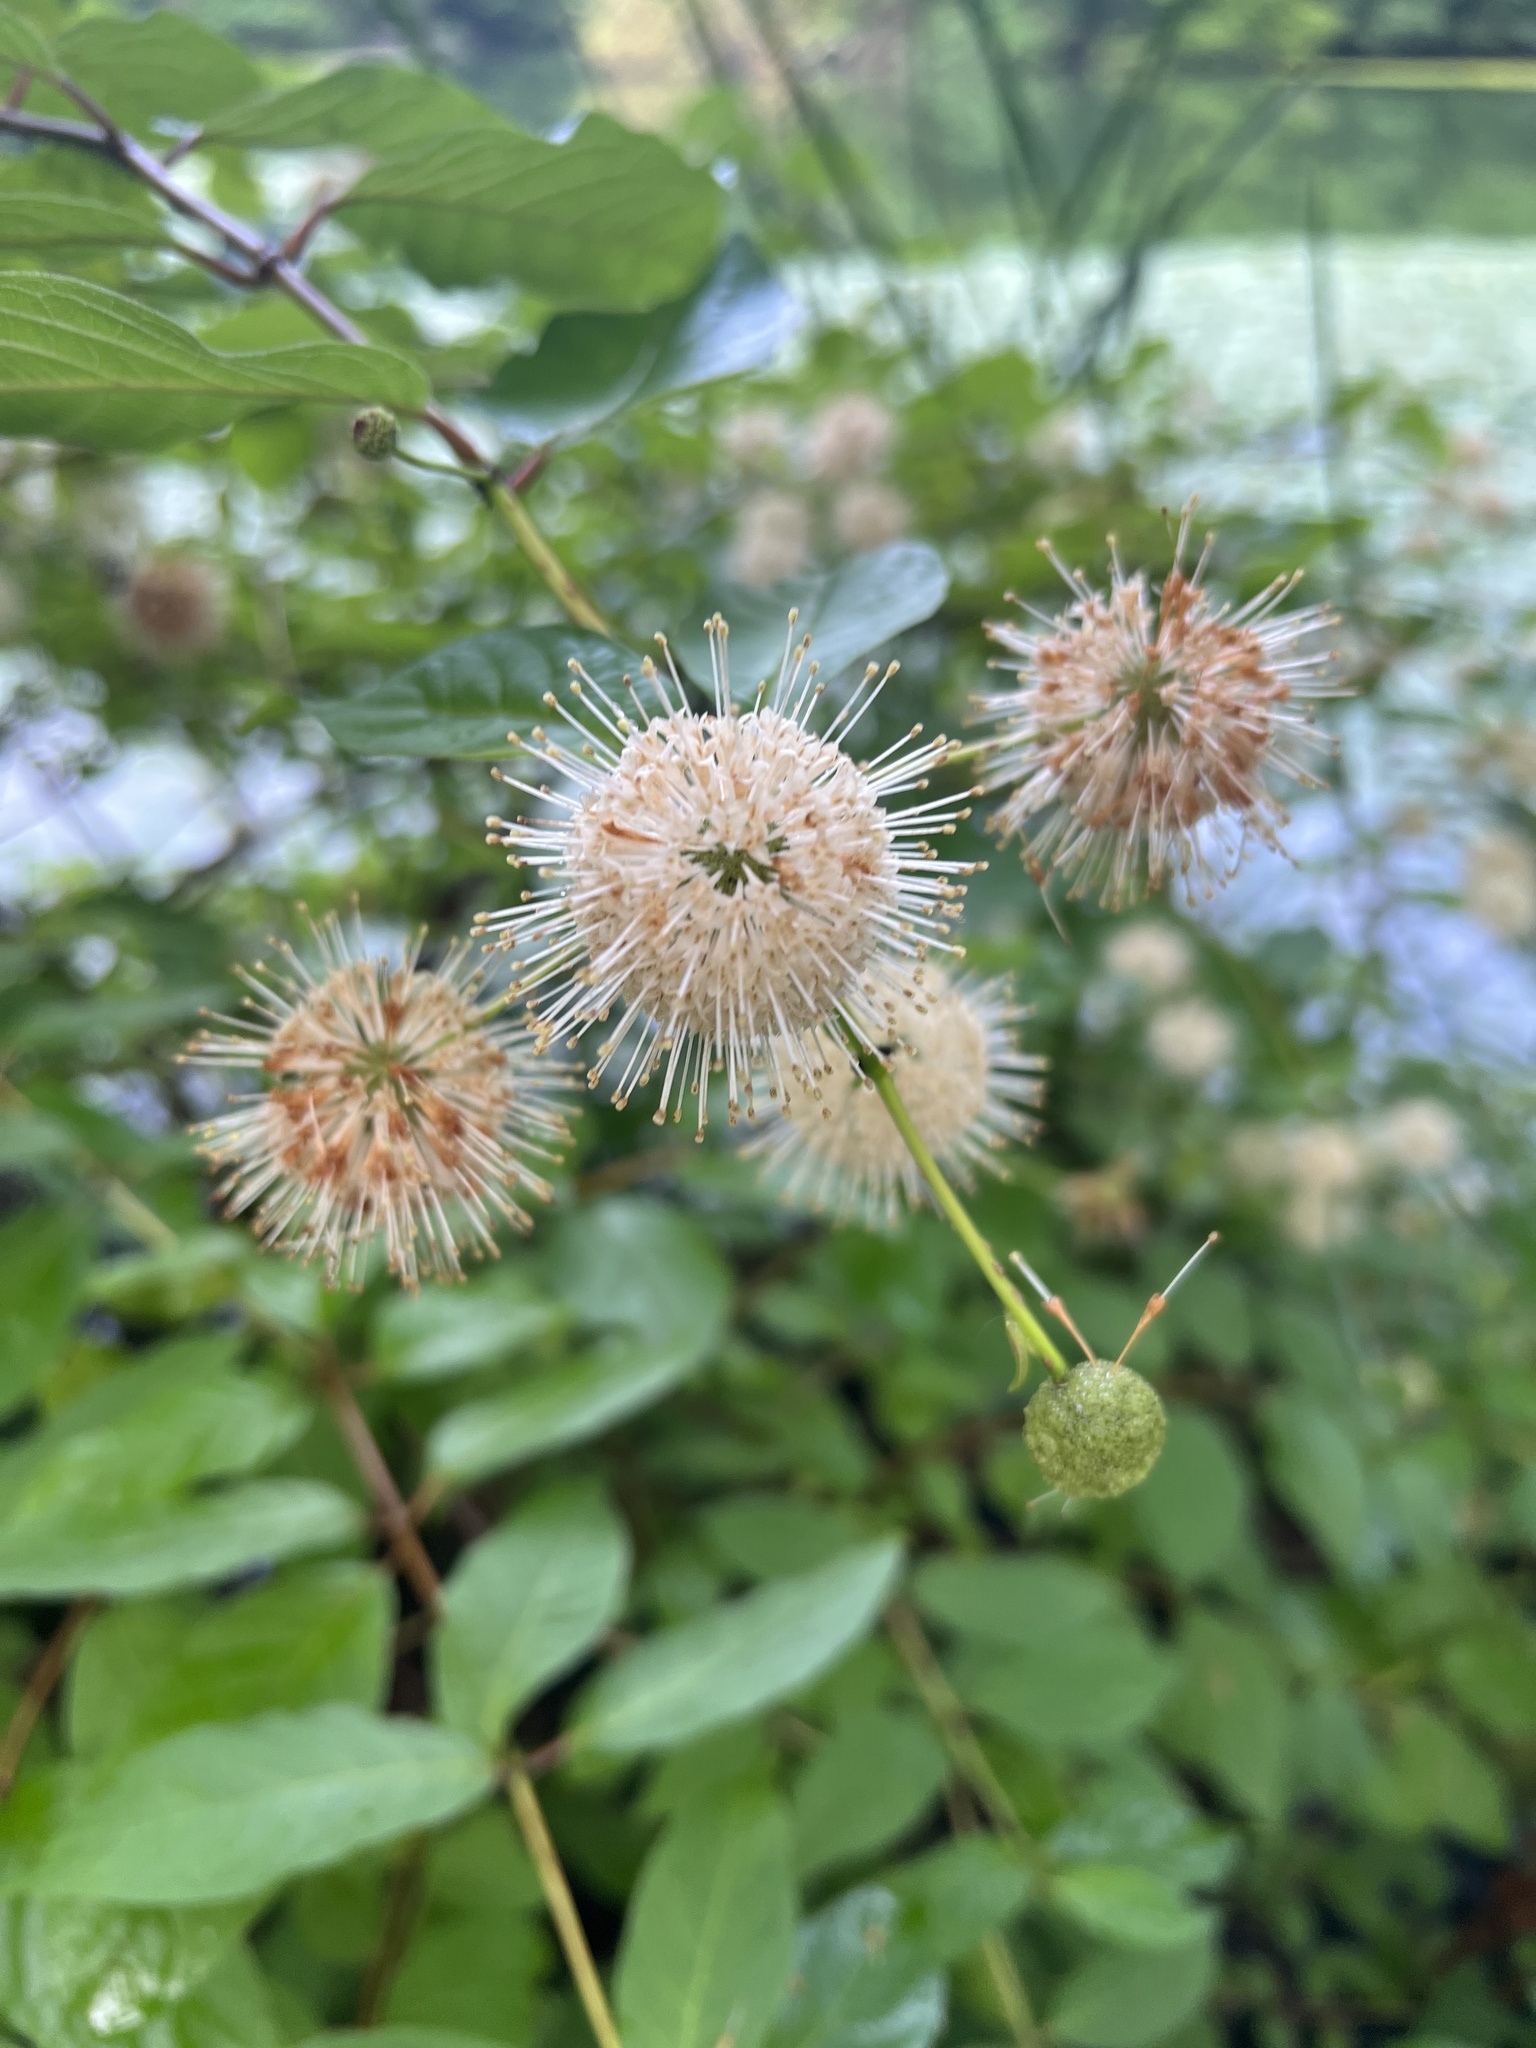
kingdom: Plantae
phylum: Tracheophyta
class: Magnoliopsida
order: Gentianales
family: Rubiaceae
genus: Cephalanthus
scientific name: Cephalanthus occidentalis
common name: Button-willow
